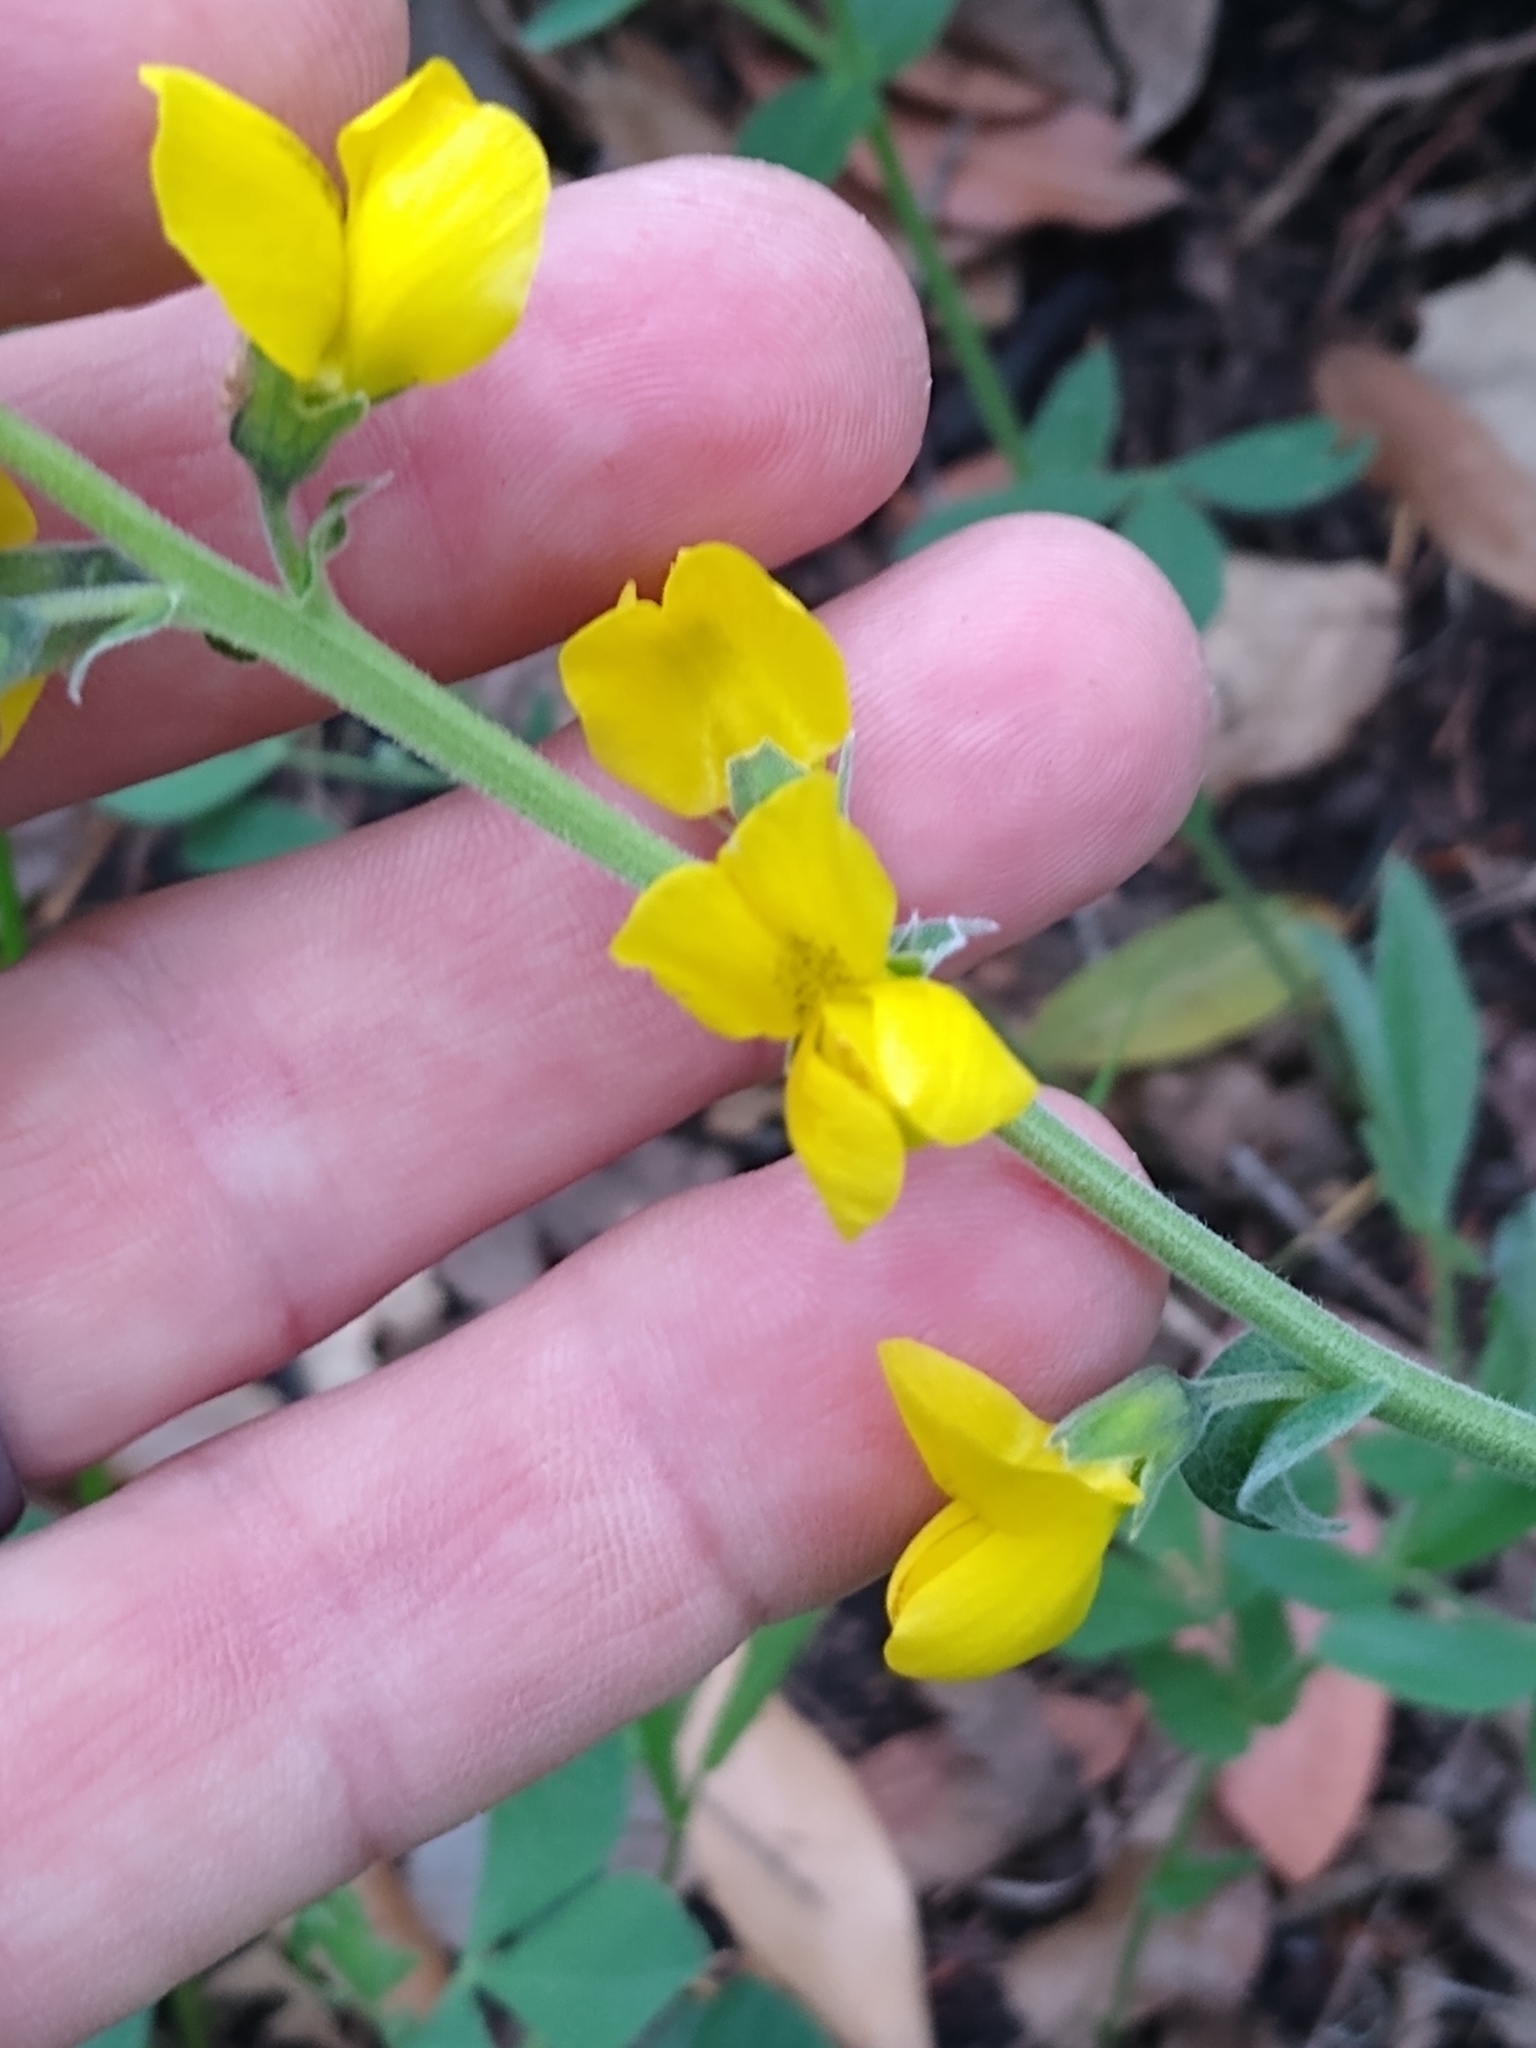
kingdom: Plantae
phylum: Tracheophyta
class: Magnoliopsida
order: Fabales
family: Fabaceae
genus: Thermopsis
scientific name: Thermopsis californica
